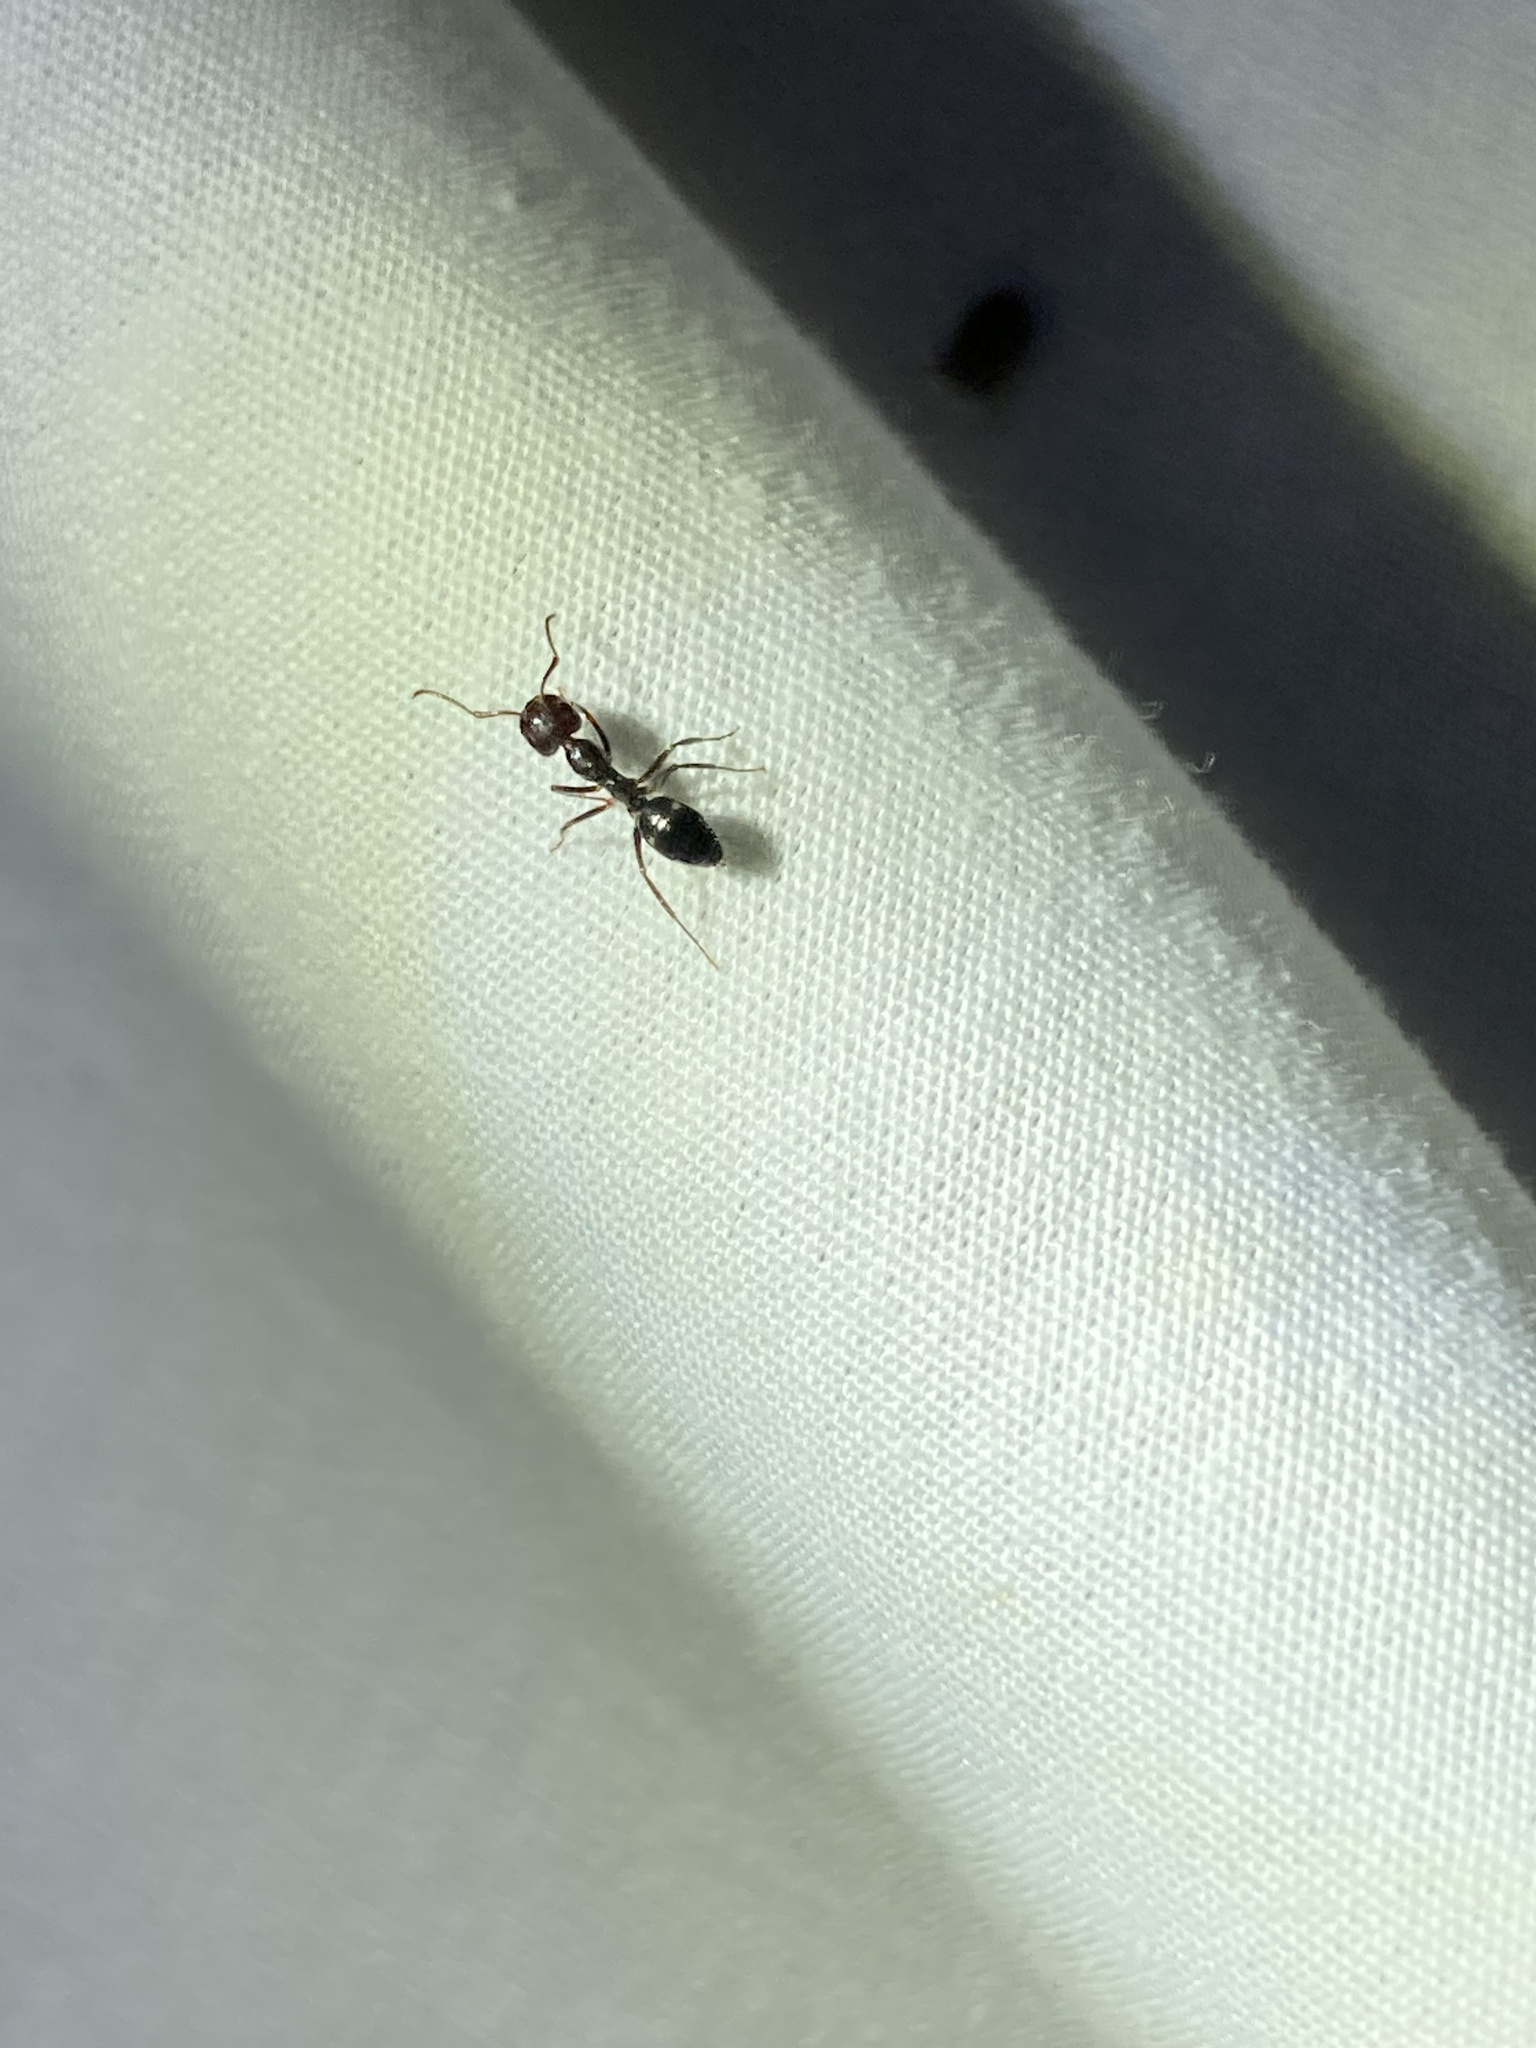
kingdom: Animalia
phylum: Arthropoda
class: Insecta
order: Hymenoptera
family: Formicidae
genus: Camponotus
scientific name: Camponotus sexguttatus
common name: Neotropical carpenter ant
